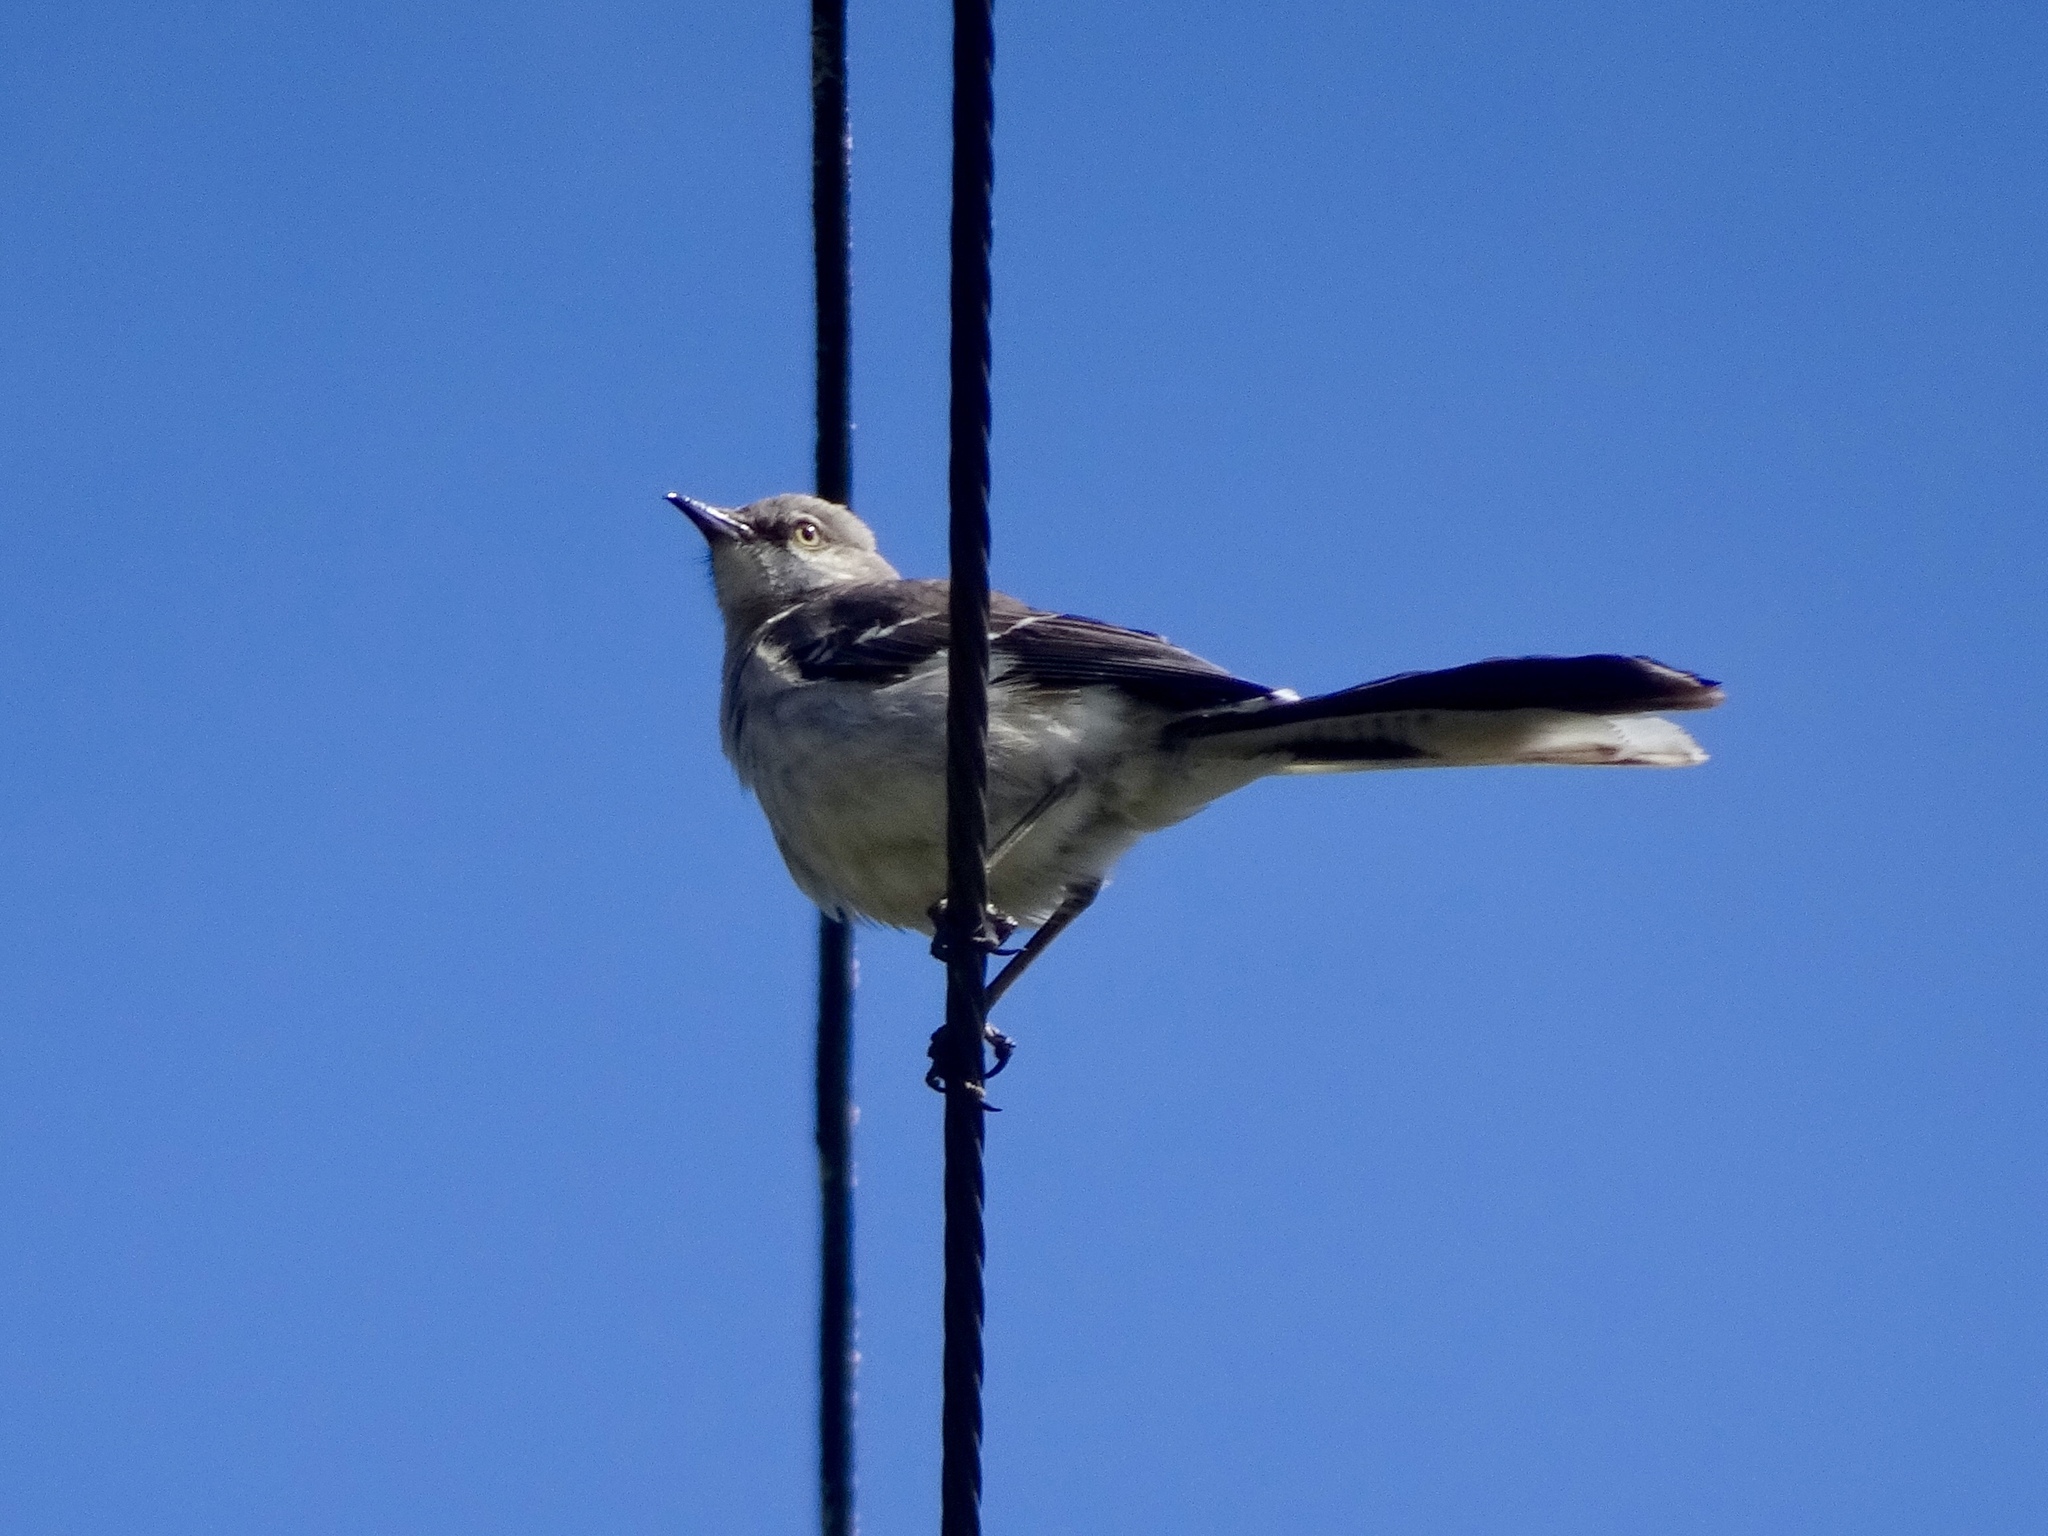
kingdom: Animalia
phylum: Chordata
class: Aves
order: Passeriformes
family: Mimidae
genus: Mimus
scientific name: Mimus polyglottos
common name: Northern mockingbird
